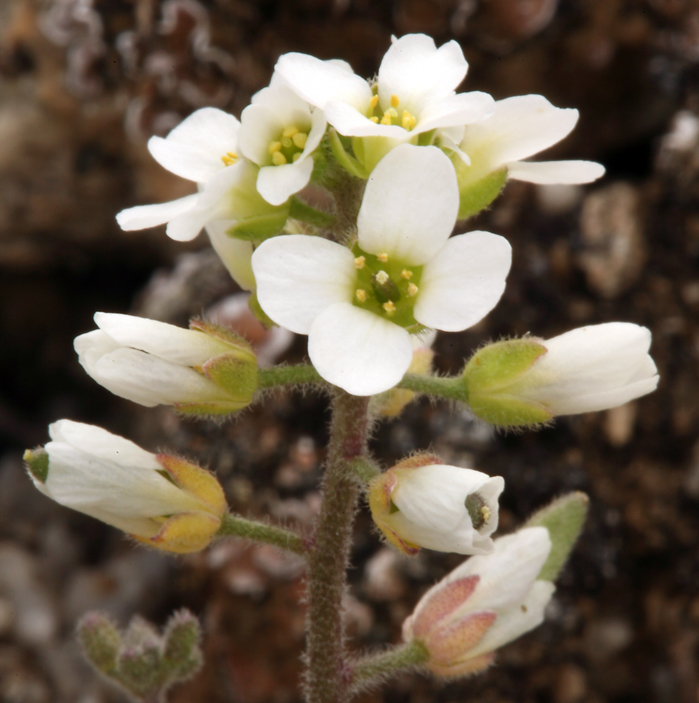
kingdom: Plantae
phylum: Tracheophyta
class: Magnoliopsida
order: Brassicales
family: Brassicaceae
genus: Tomostima
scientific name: Tomostima cuneifolia
